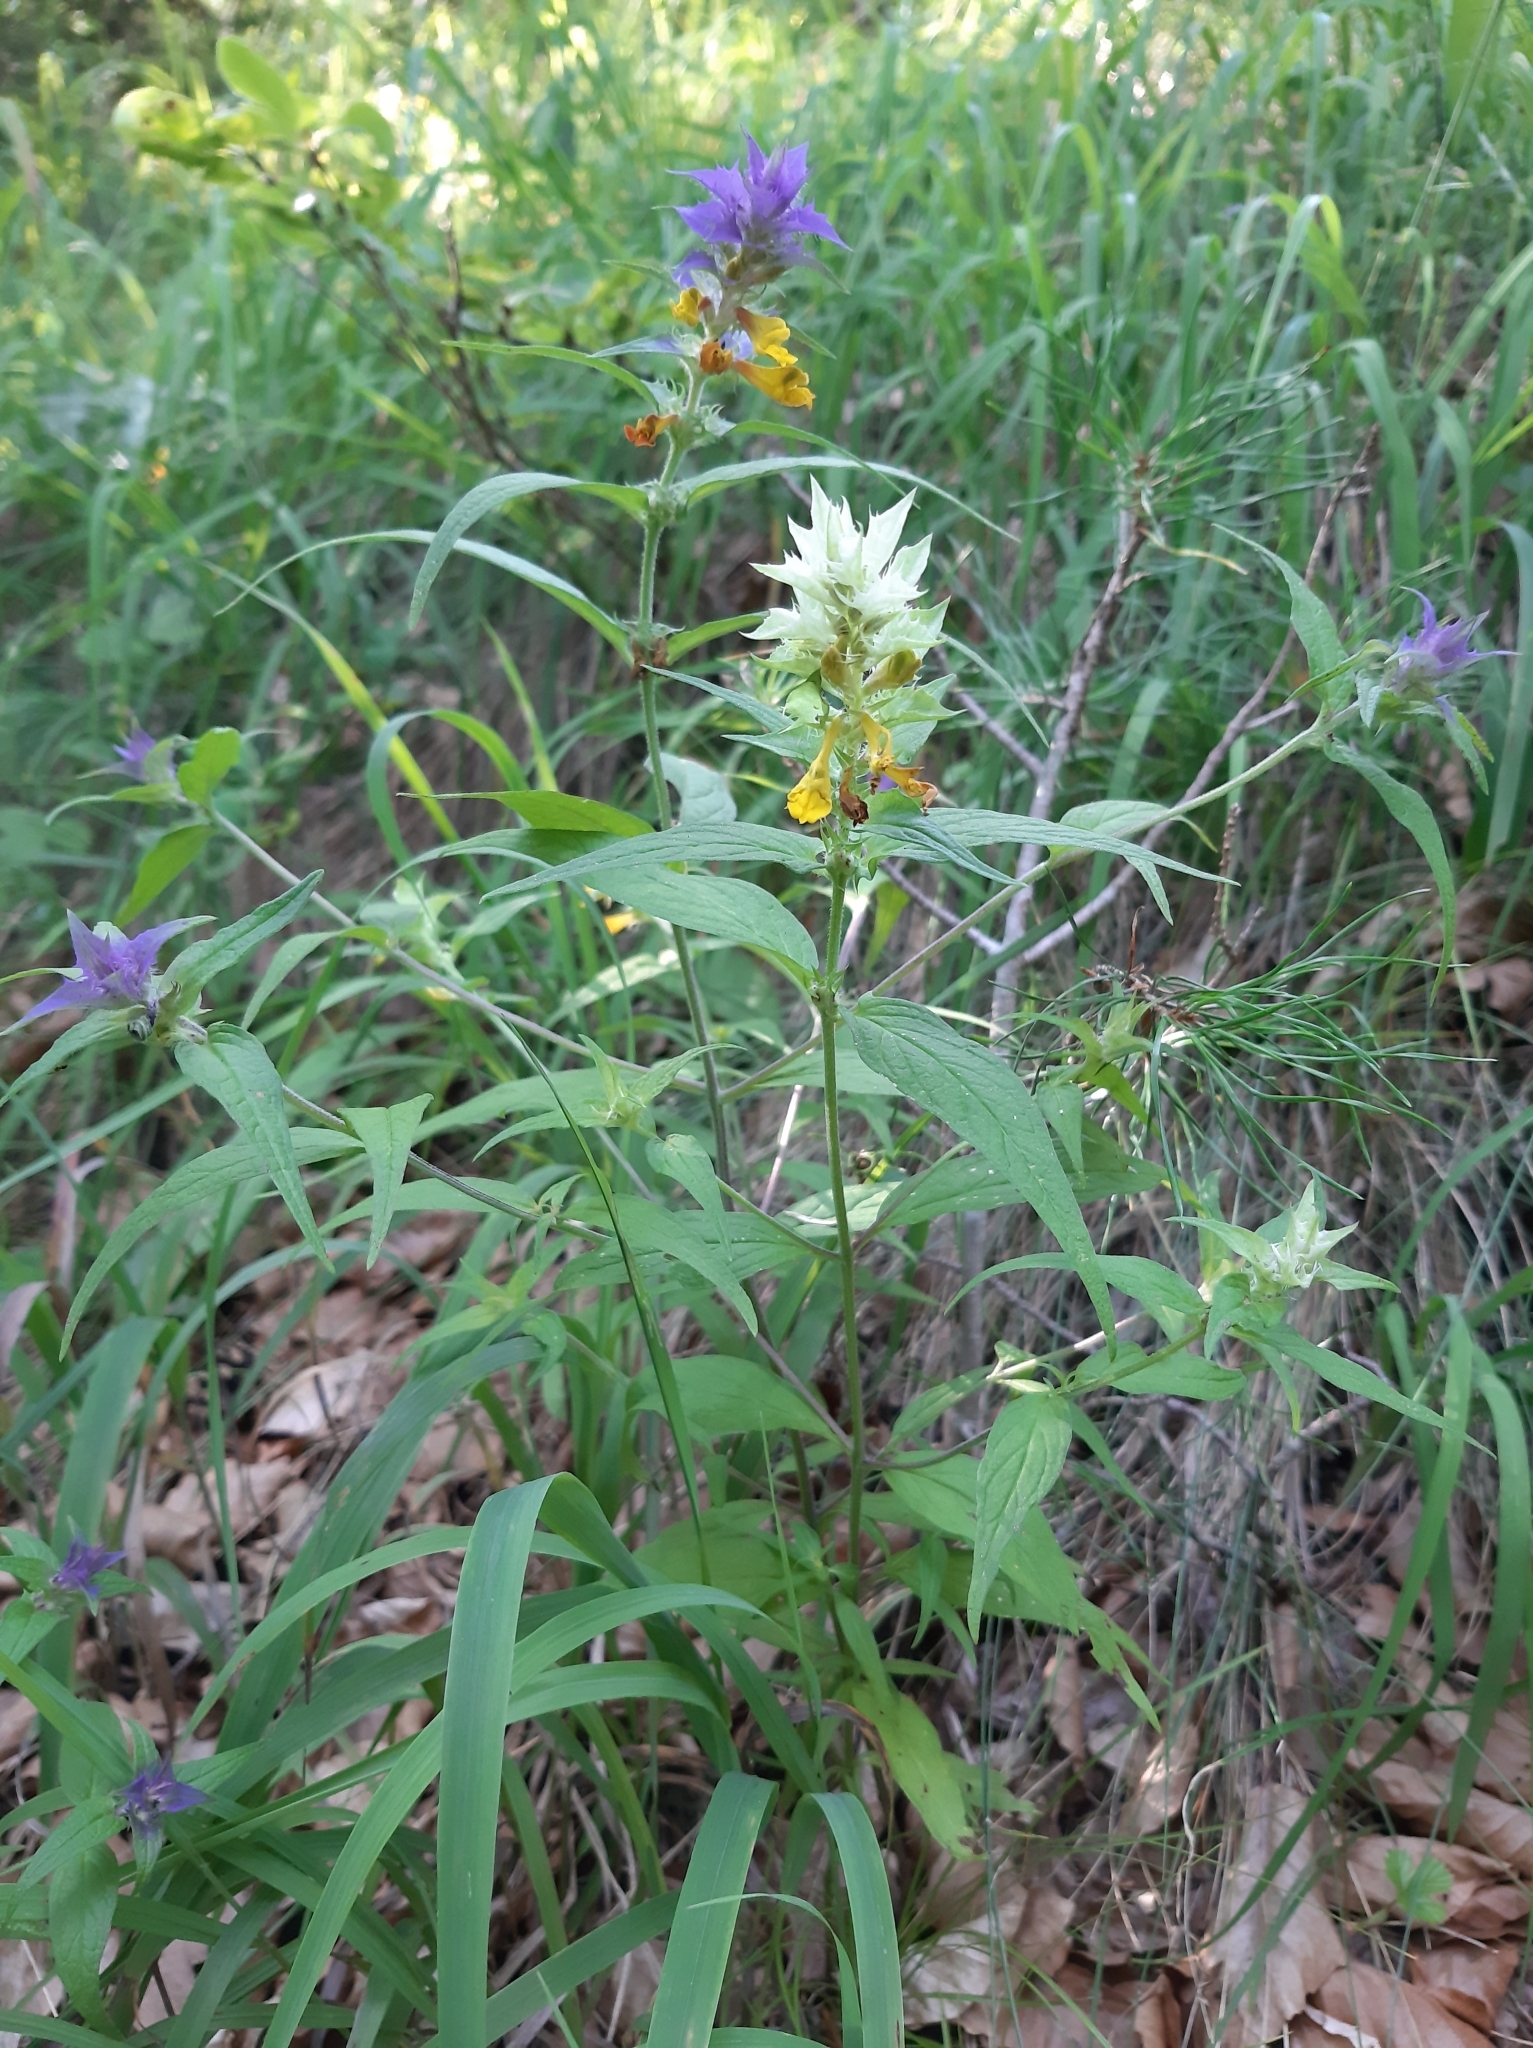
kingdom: Plantae
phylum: Tracheophyta
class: Magnoliopsida
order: Lamiales
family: Orobanchaceae
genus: Melampyrum
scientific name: Melampyrum nemorosum
